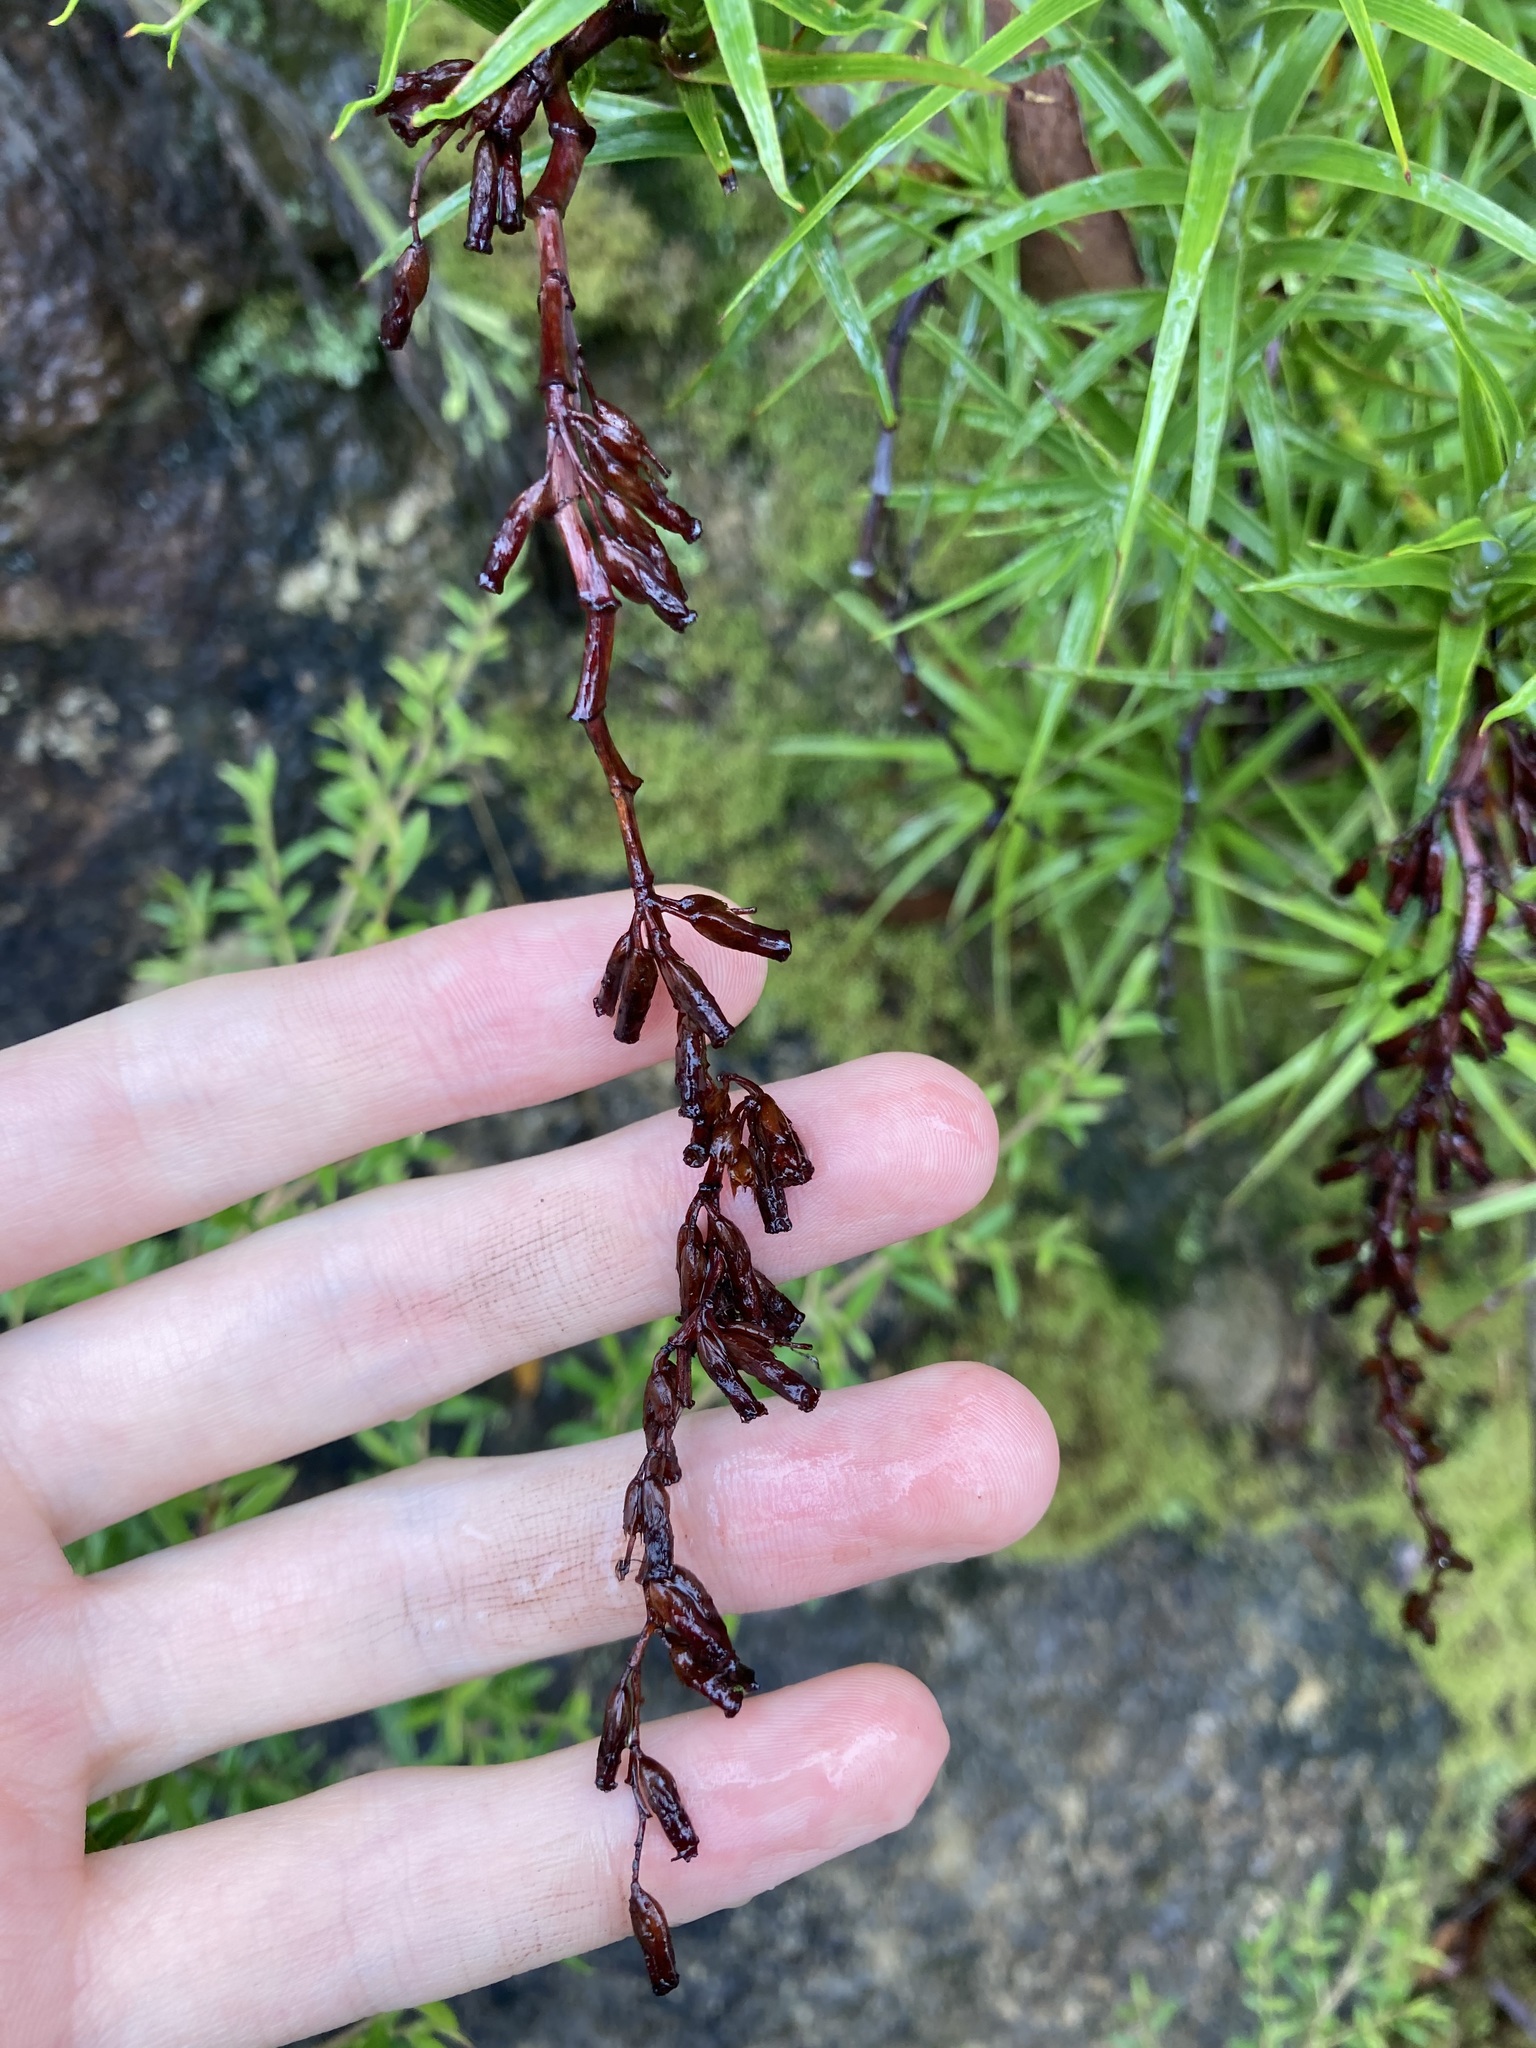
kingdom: Plantae
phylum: Tracheophyta
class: Magnoliopsida
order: Ericales
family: Ericaceae
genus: Dracophyllum
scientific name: Dracophyllum secundum
